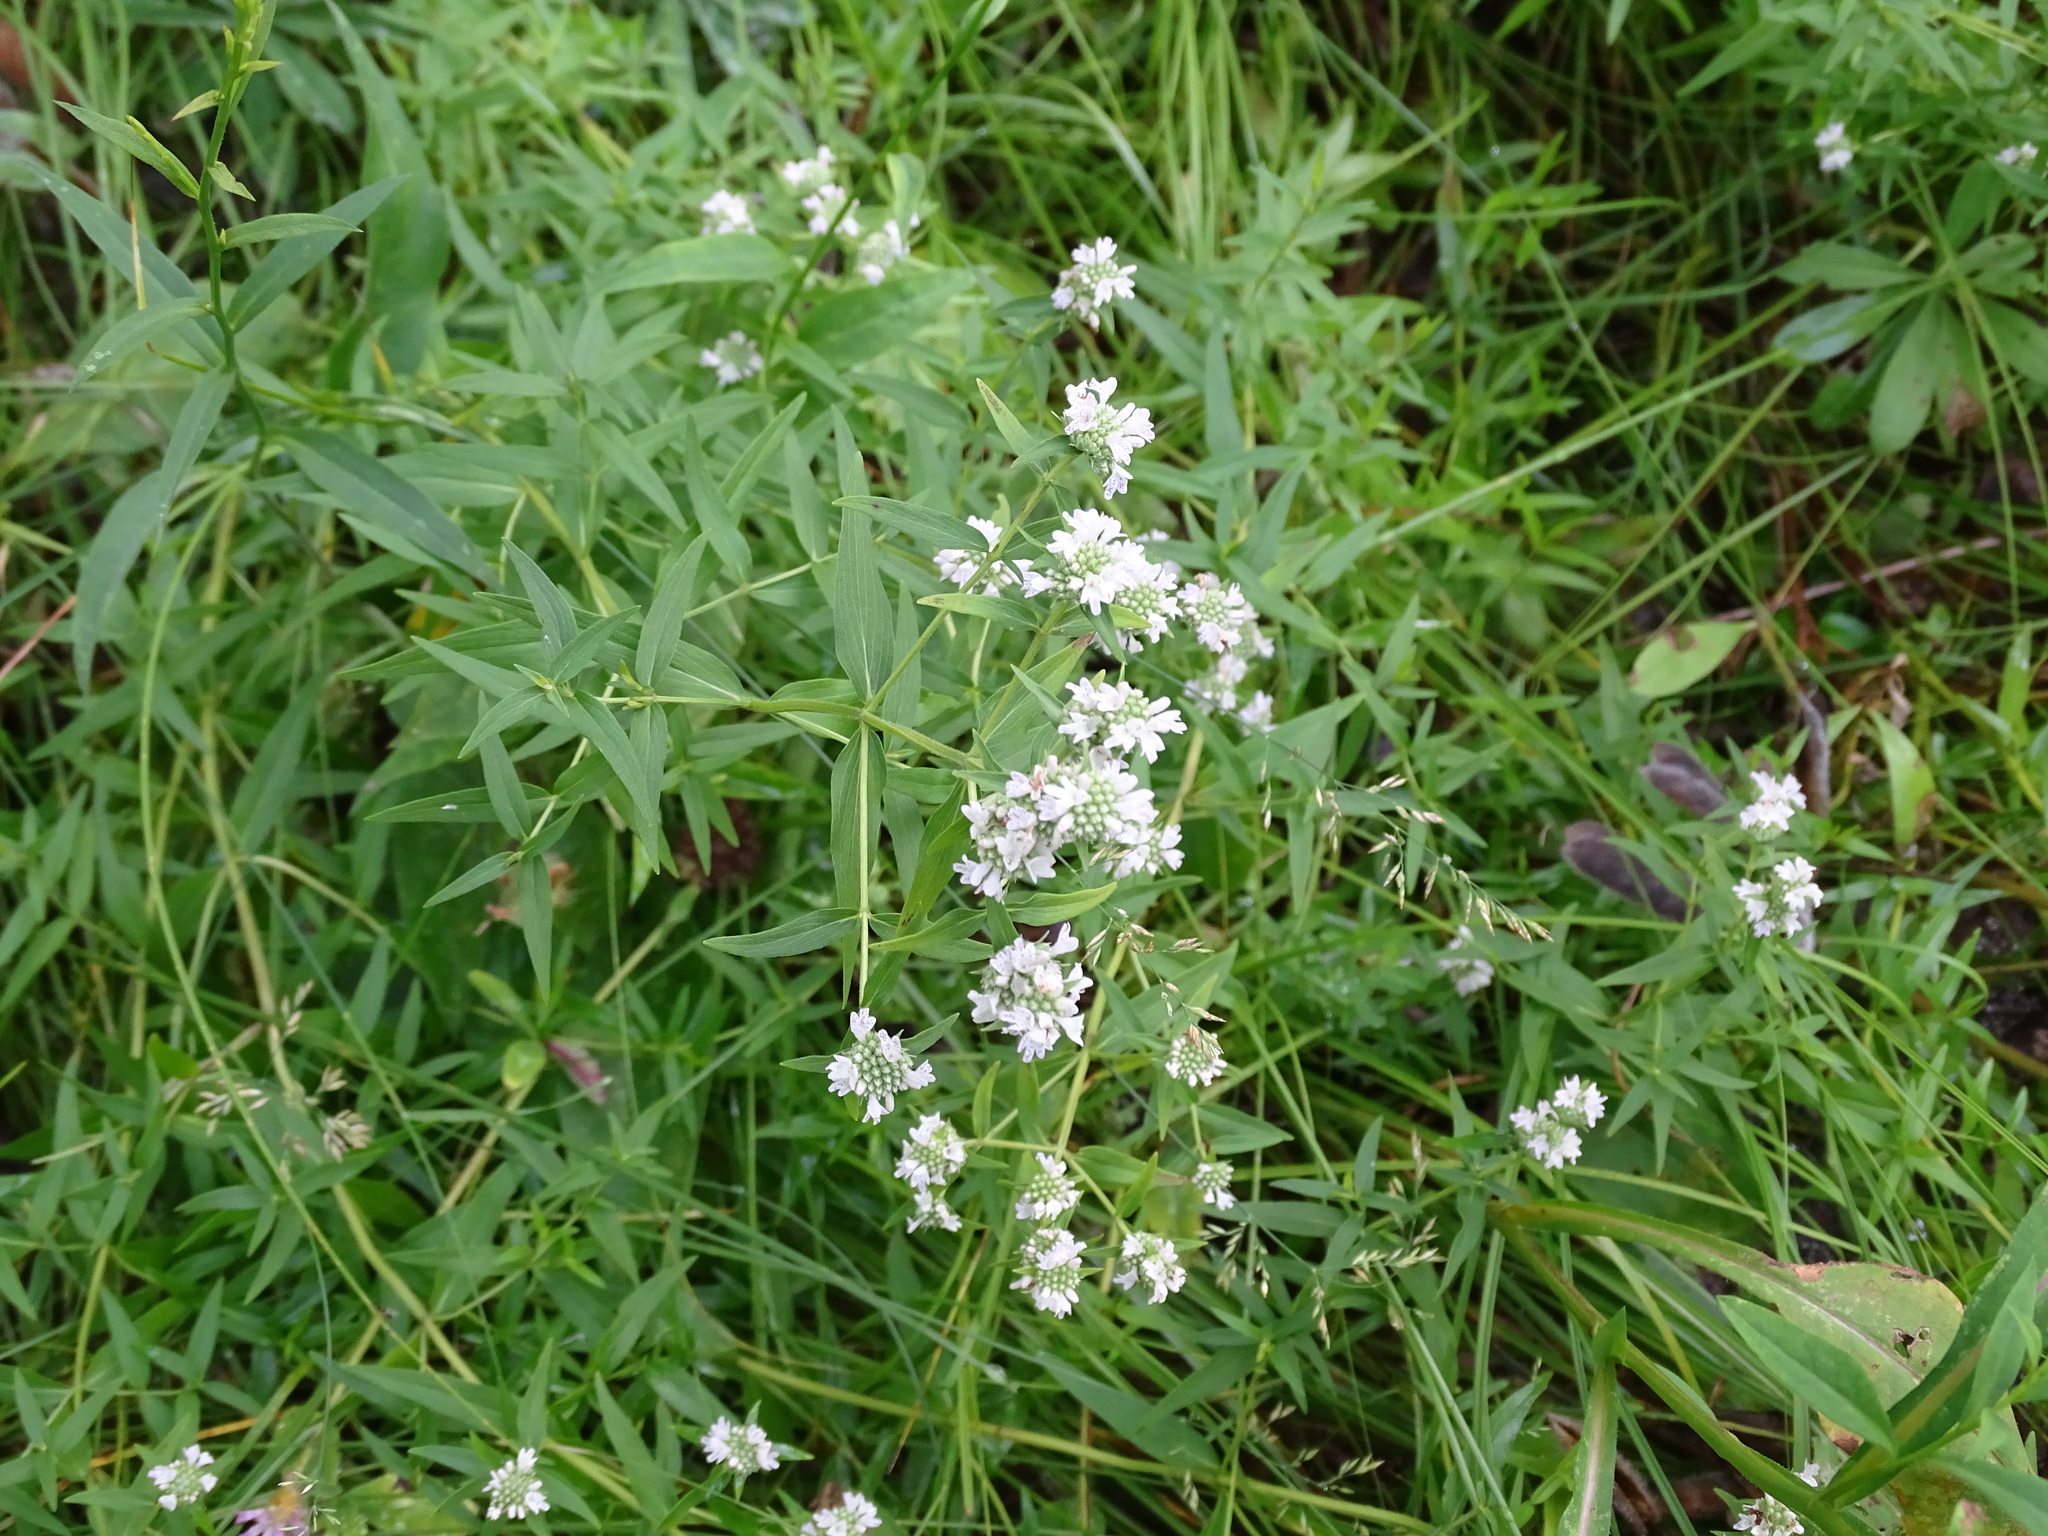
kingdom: Plantae
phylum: Tracheophyta
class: Magnoliopsida
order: Lamiales
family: Lamiaceae
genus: Pycnanthemum
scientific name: Pycnanthemum virginianum
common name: Virginia mountain-mint
